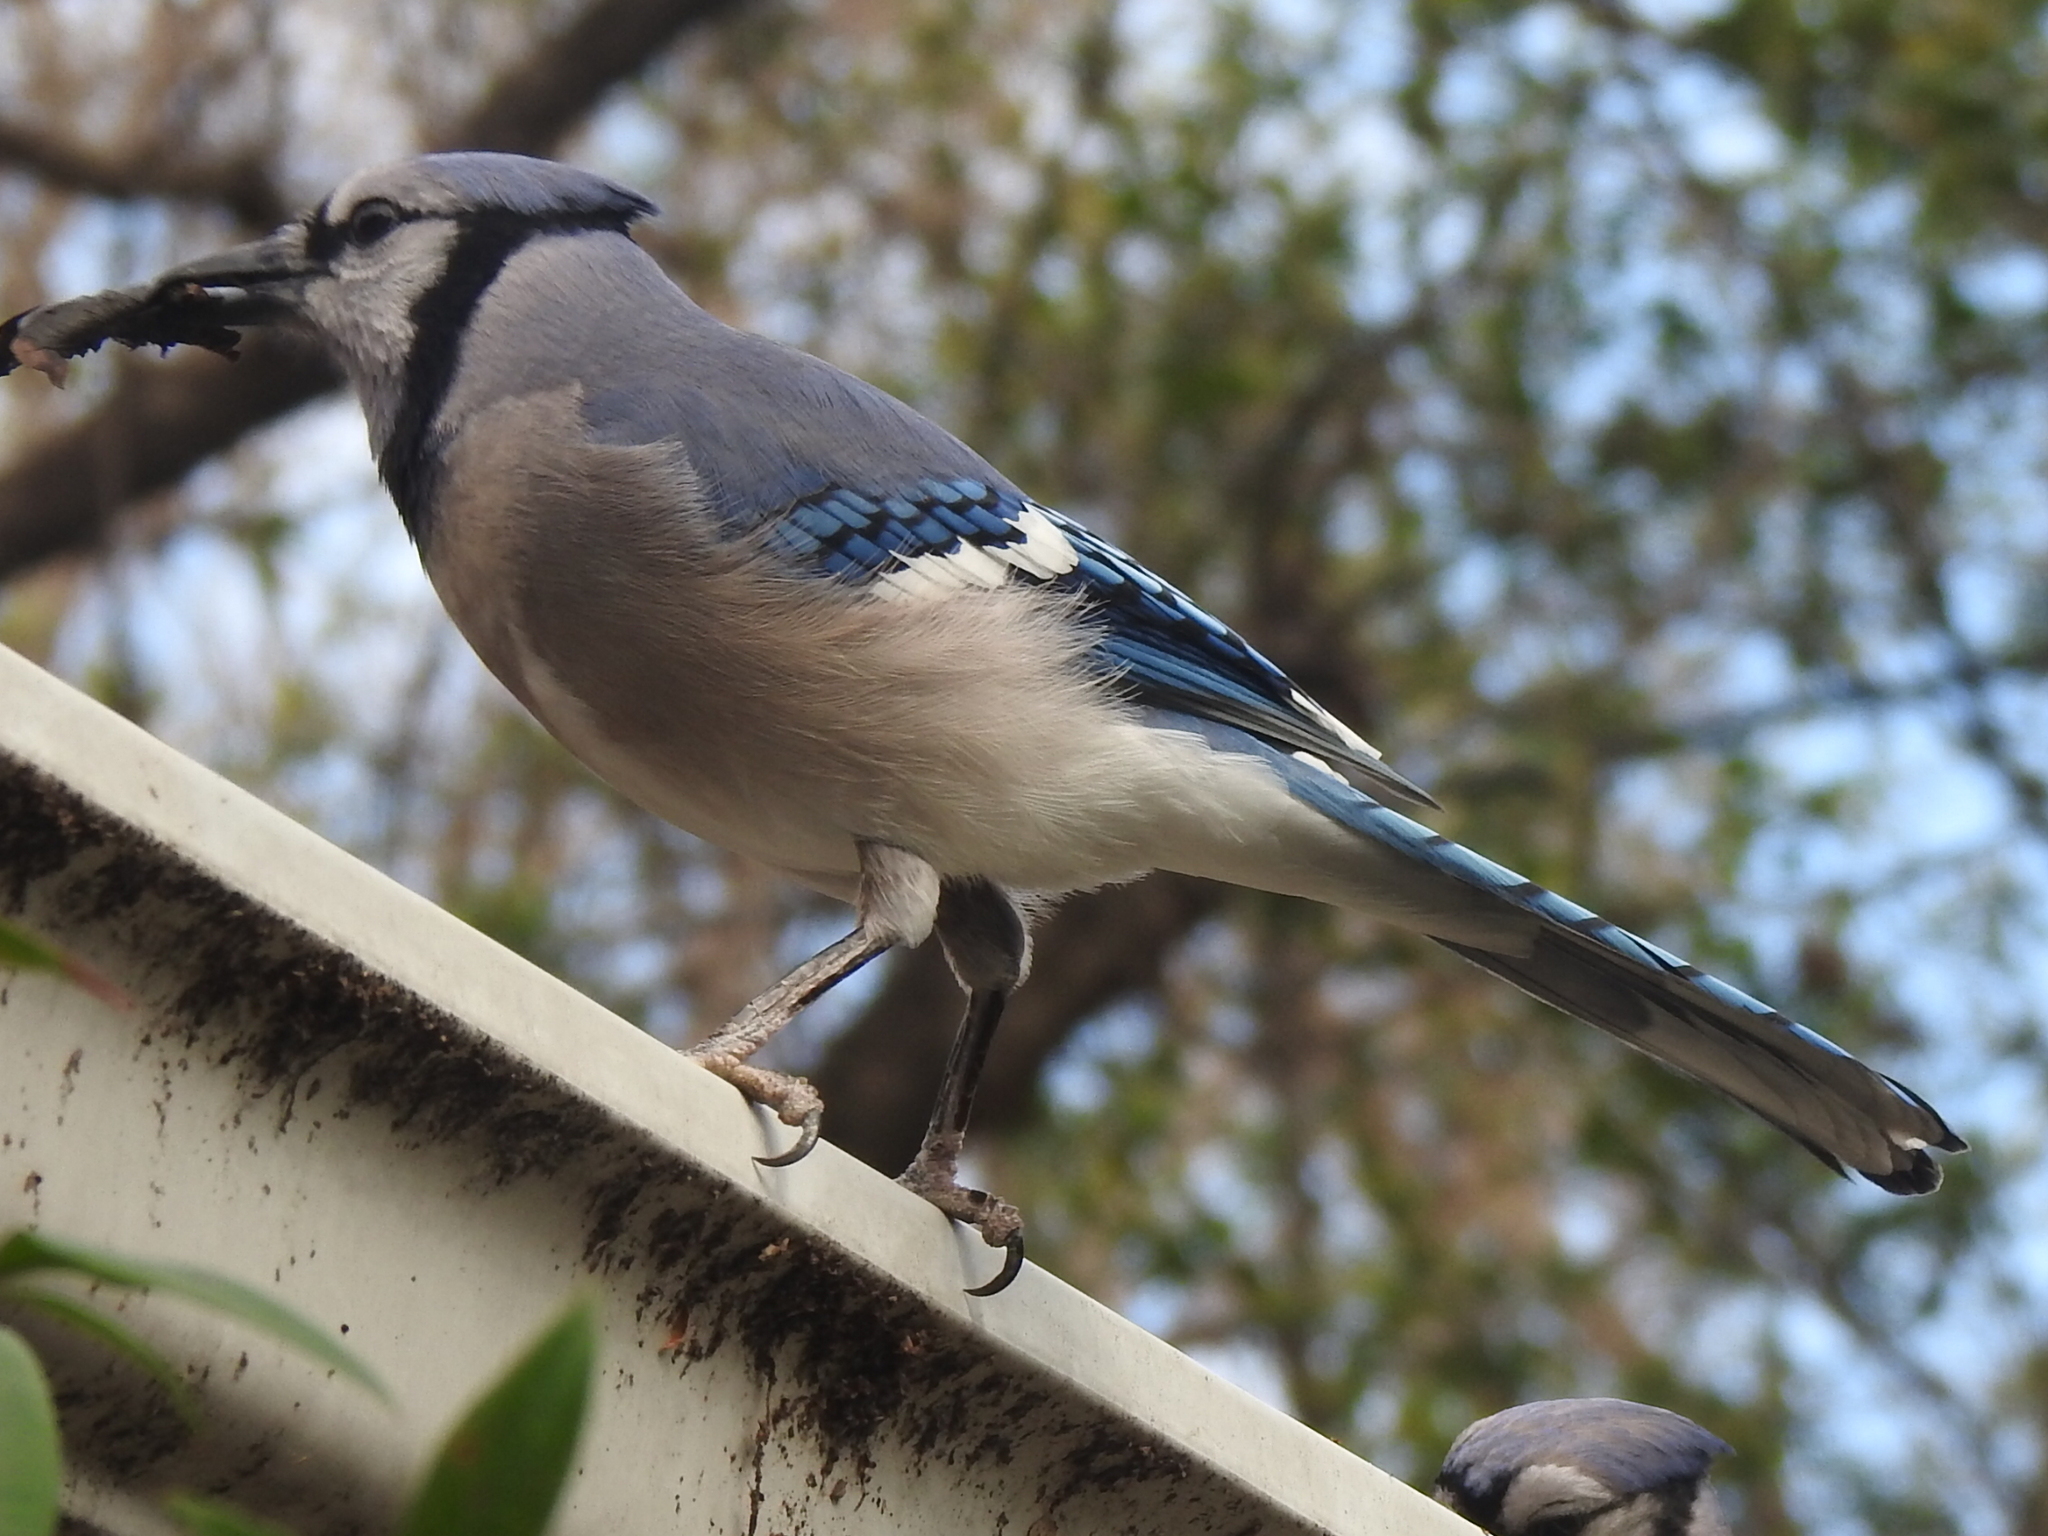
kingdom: Animalia
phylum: Chordata
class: Aves
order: Passeriformes
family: Corvidae
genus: Cyanocitta
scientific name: Cyanocitta cristata
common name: Blue jay
